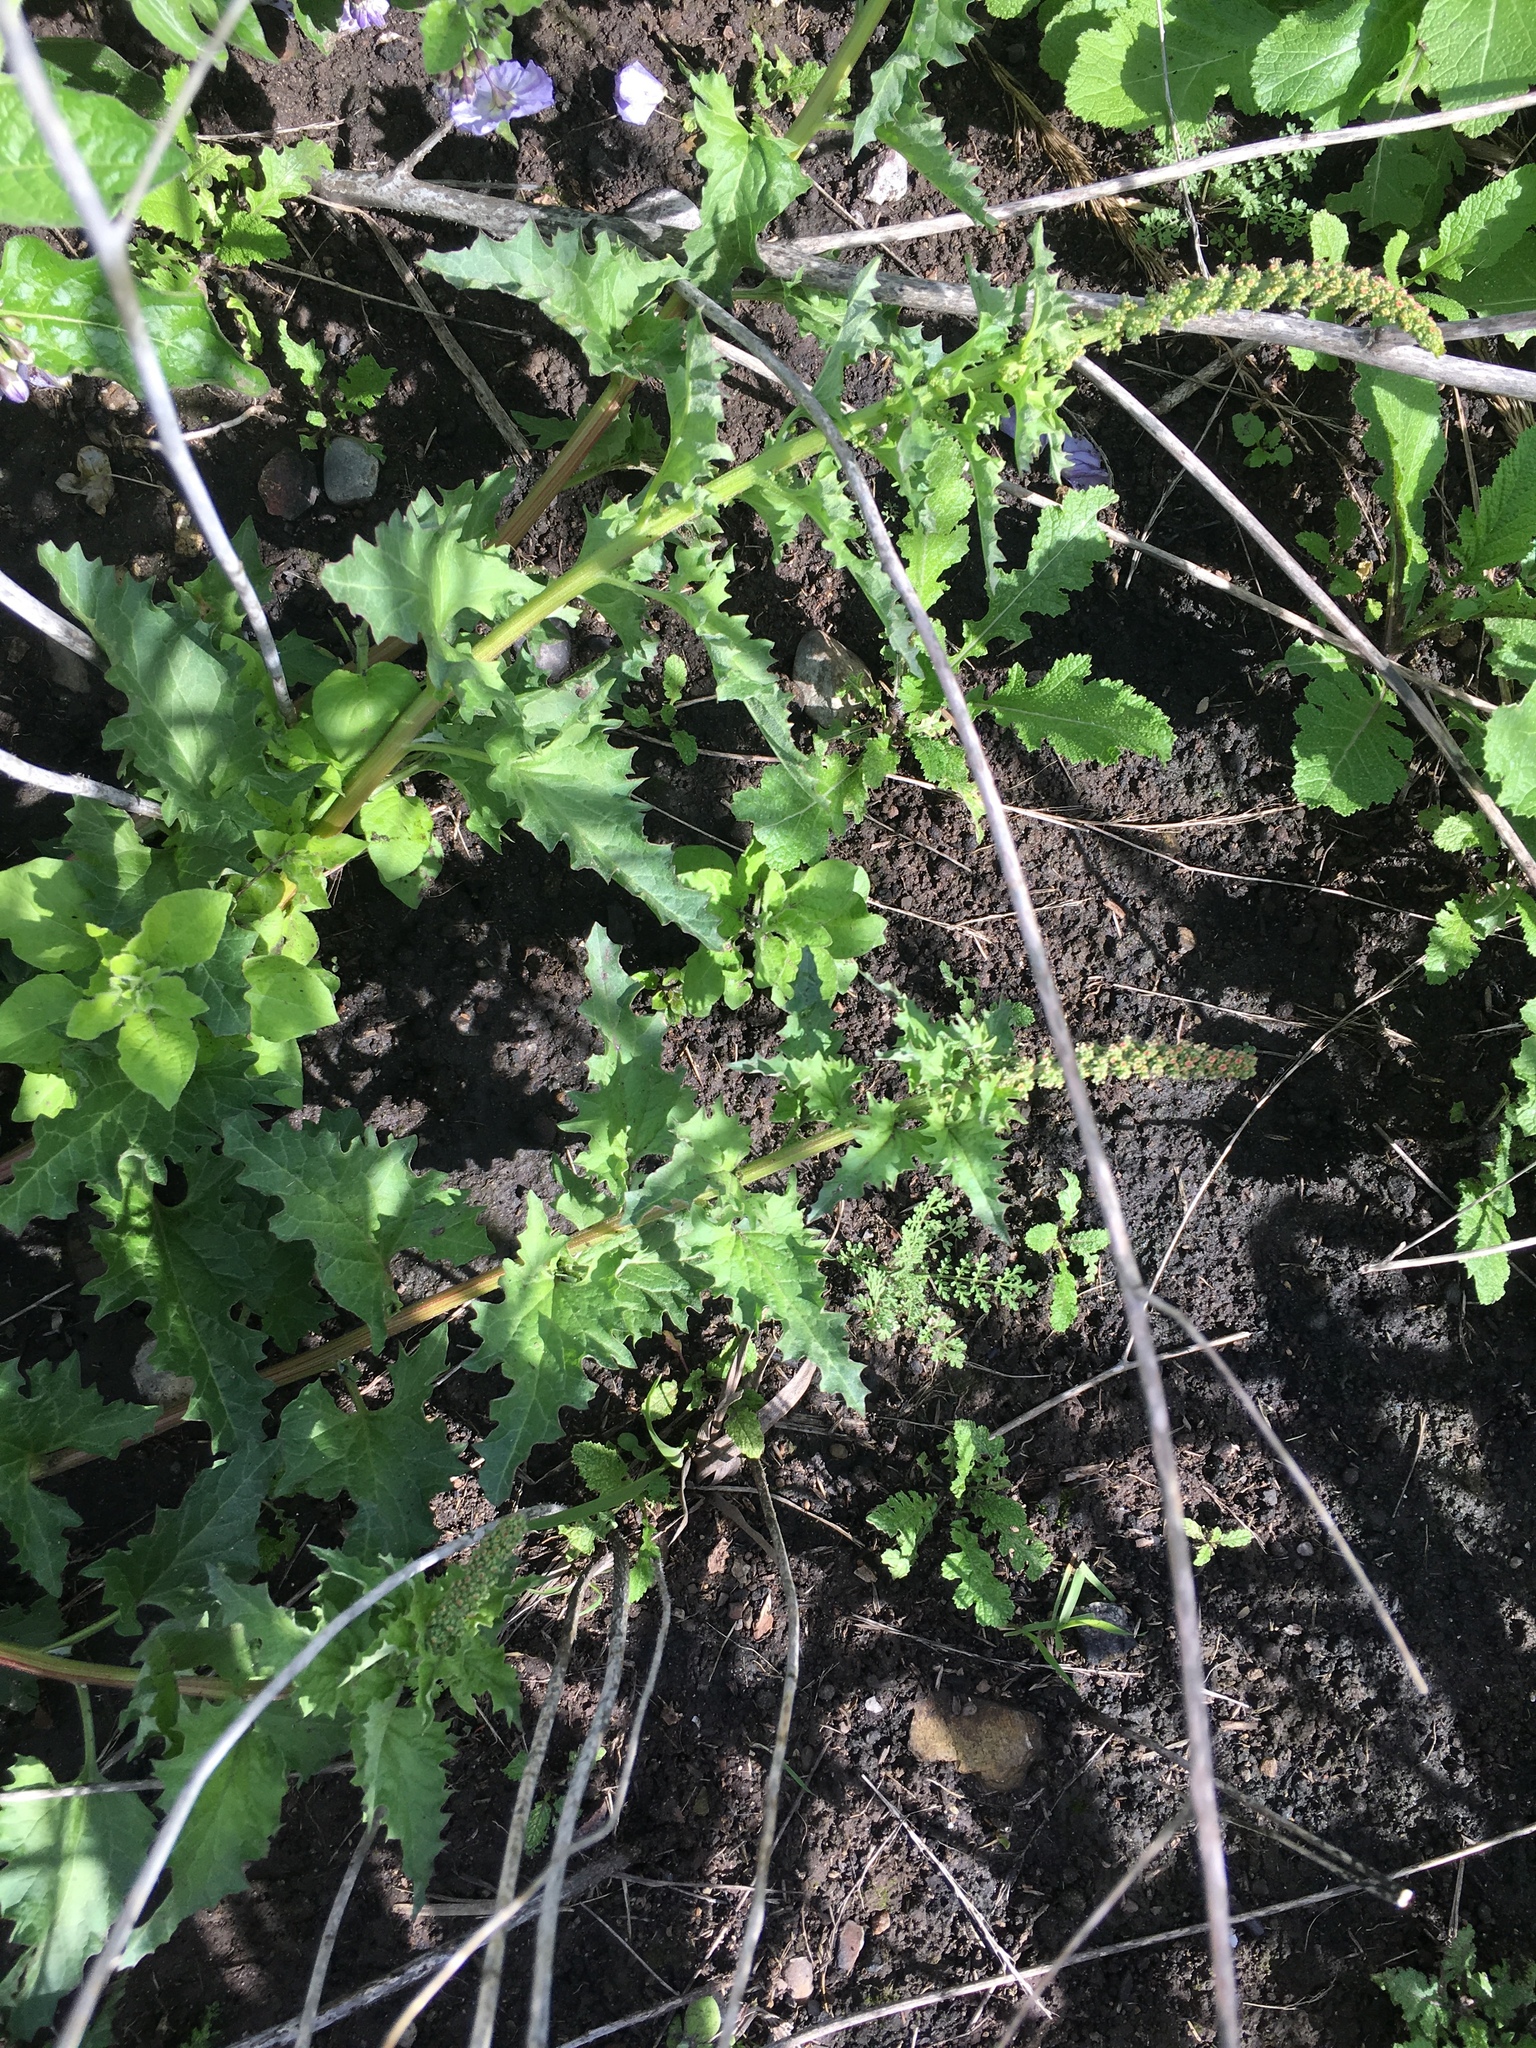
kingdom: Plantae
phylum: Tracheophyta
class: Magnoliopsida
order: Caryophyllales
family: Amaranthaceae
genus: Blitum
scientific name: Blitum californicum
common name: California goosefoot
